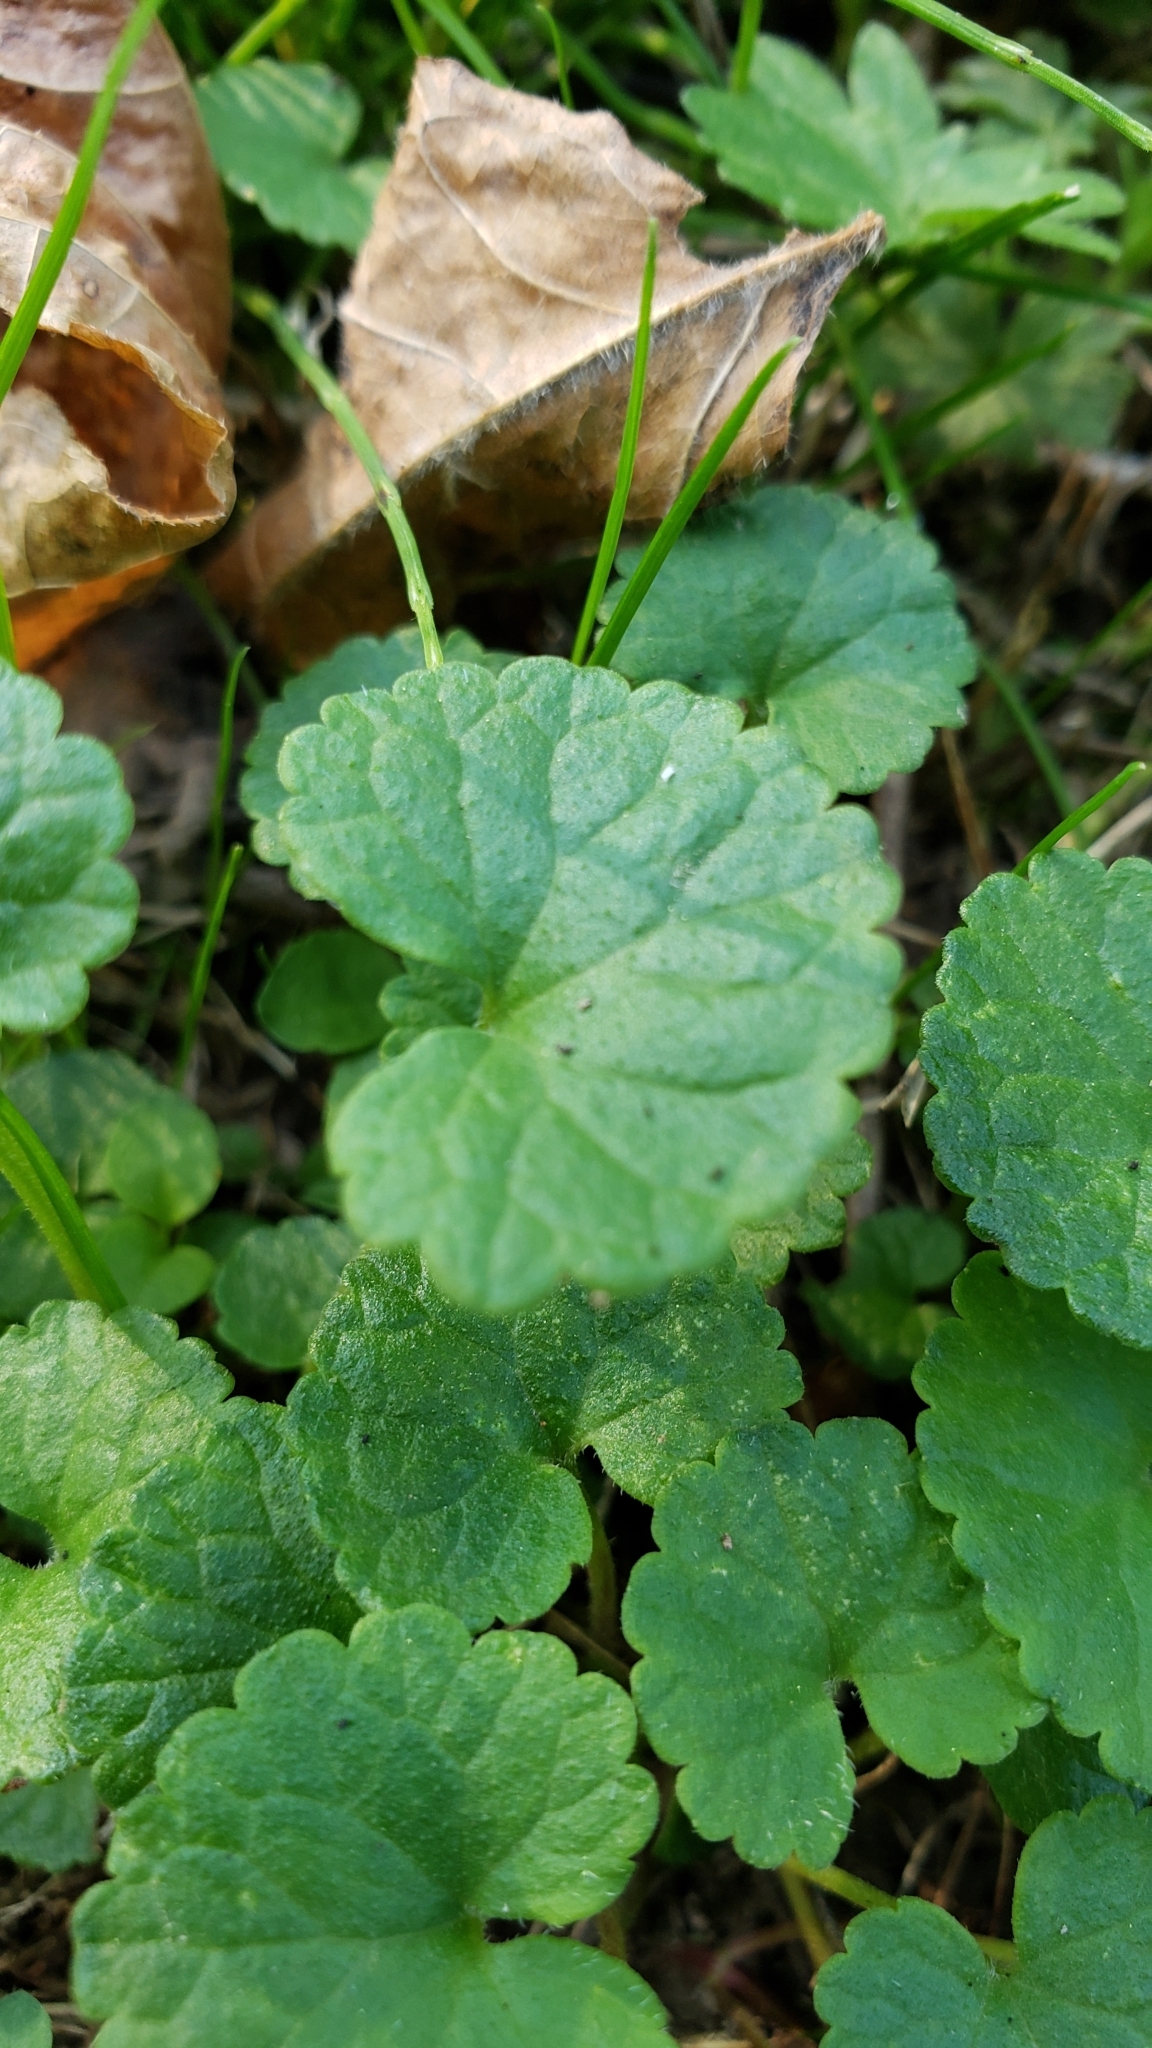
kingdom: Plantae
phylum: Tracheophyta
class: Magnoliopsida
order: Lamiales
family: Lamiaceae
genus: Glechoma
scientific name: Glechoma hederacea
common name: Ground ivy
